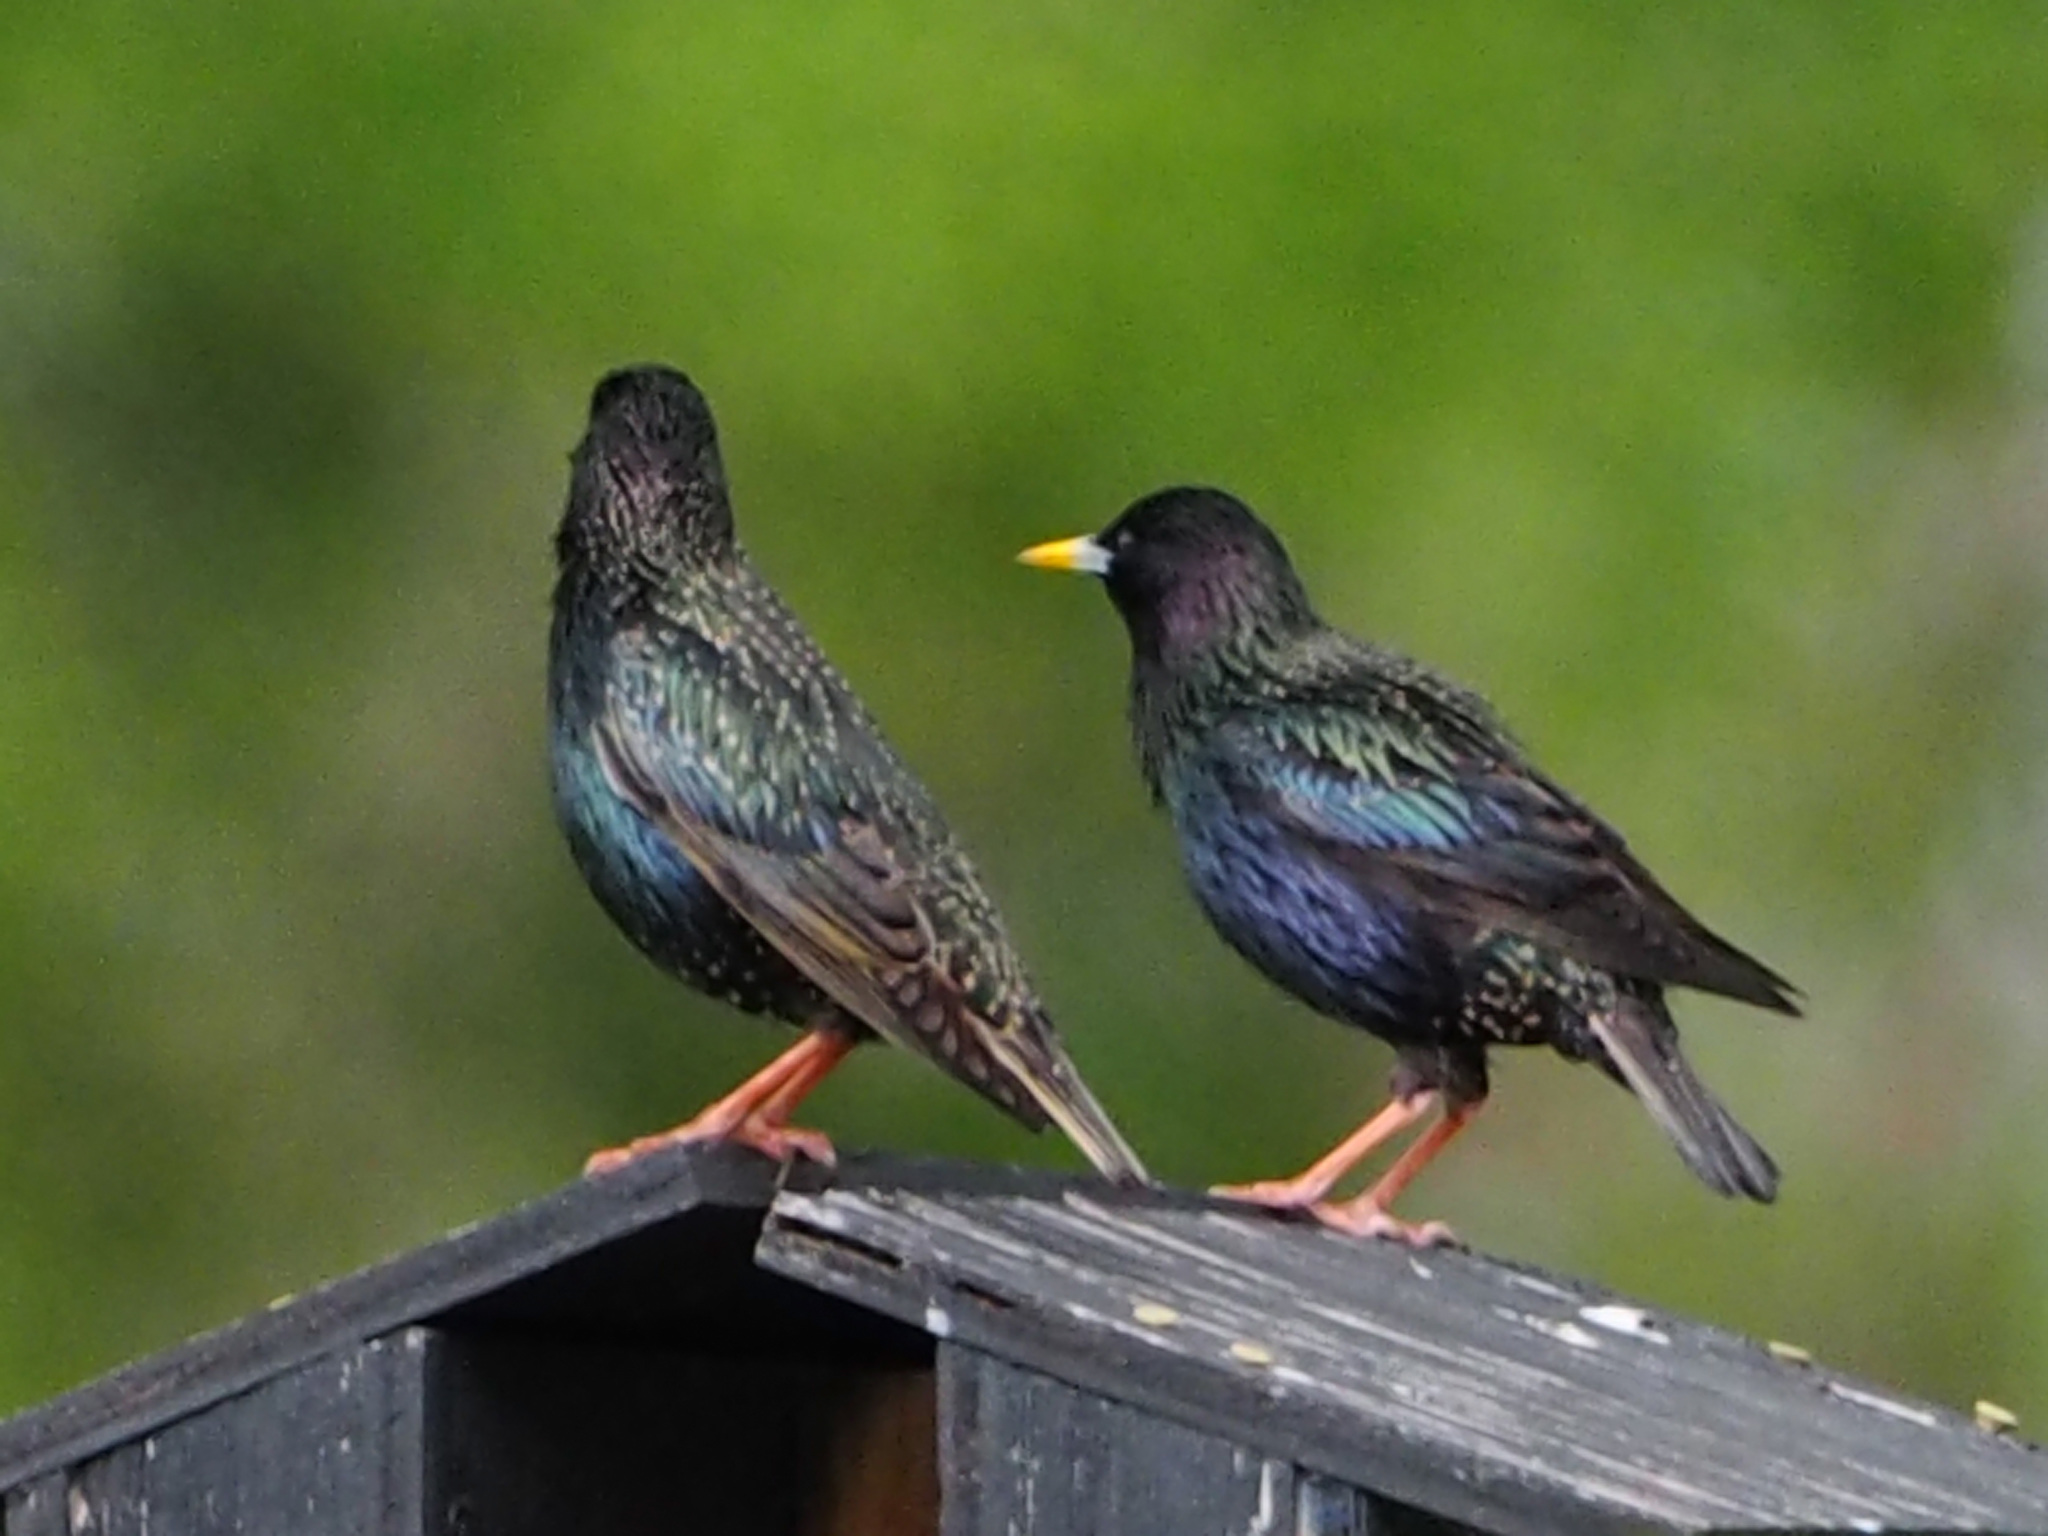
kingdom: Animalia
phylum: Chordata
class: Aves
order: Passeriformes
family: Sturnidae
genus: Sturnus
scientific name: Sturnus vulgaris
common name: Common starling
